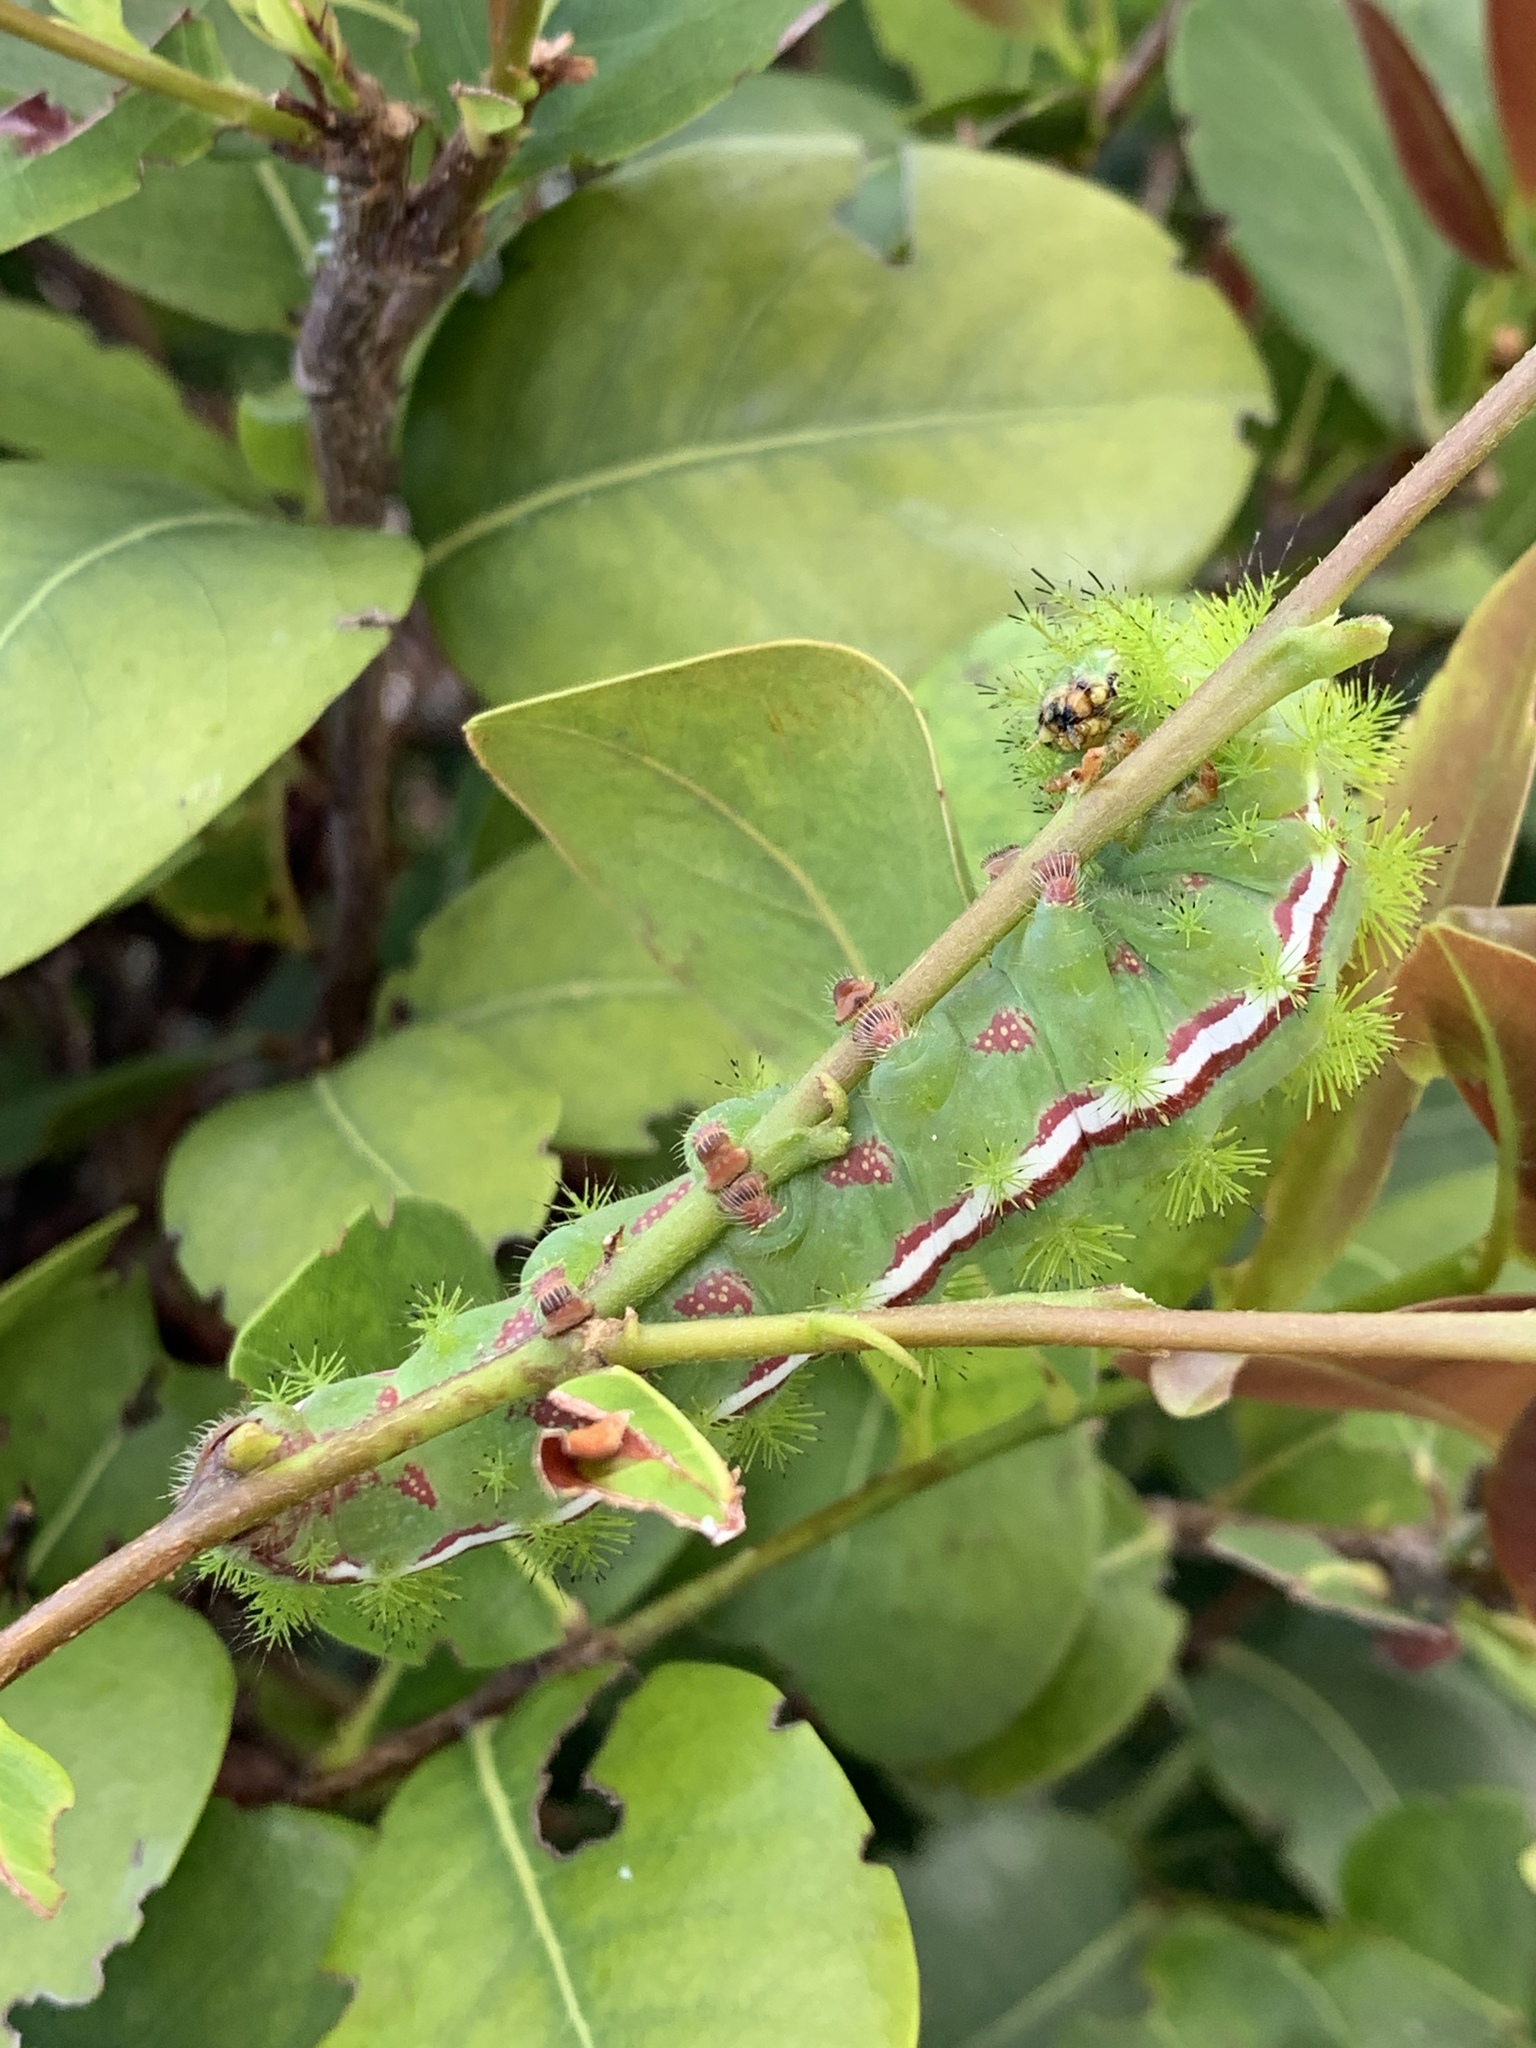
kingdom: Animalia
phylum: Arthropoda
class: Insecta
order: Lepidoptera
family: Saturniidae
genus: Automeris
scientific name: Automeris io
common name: Io moth
